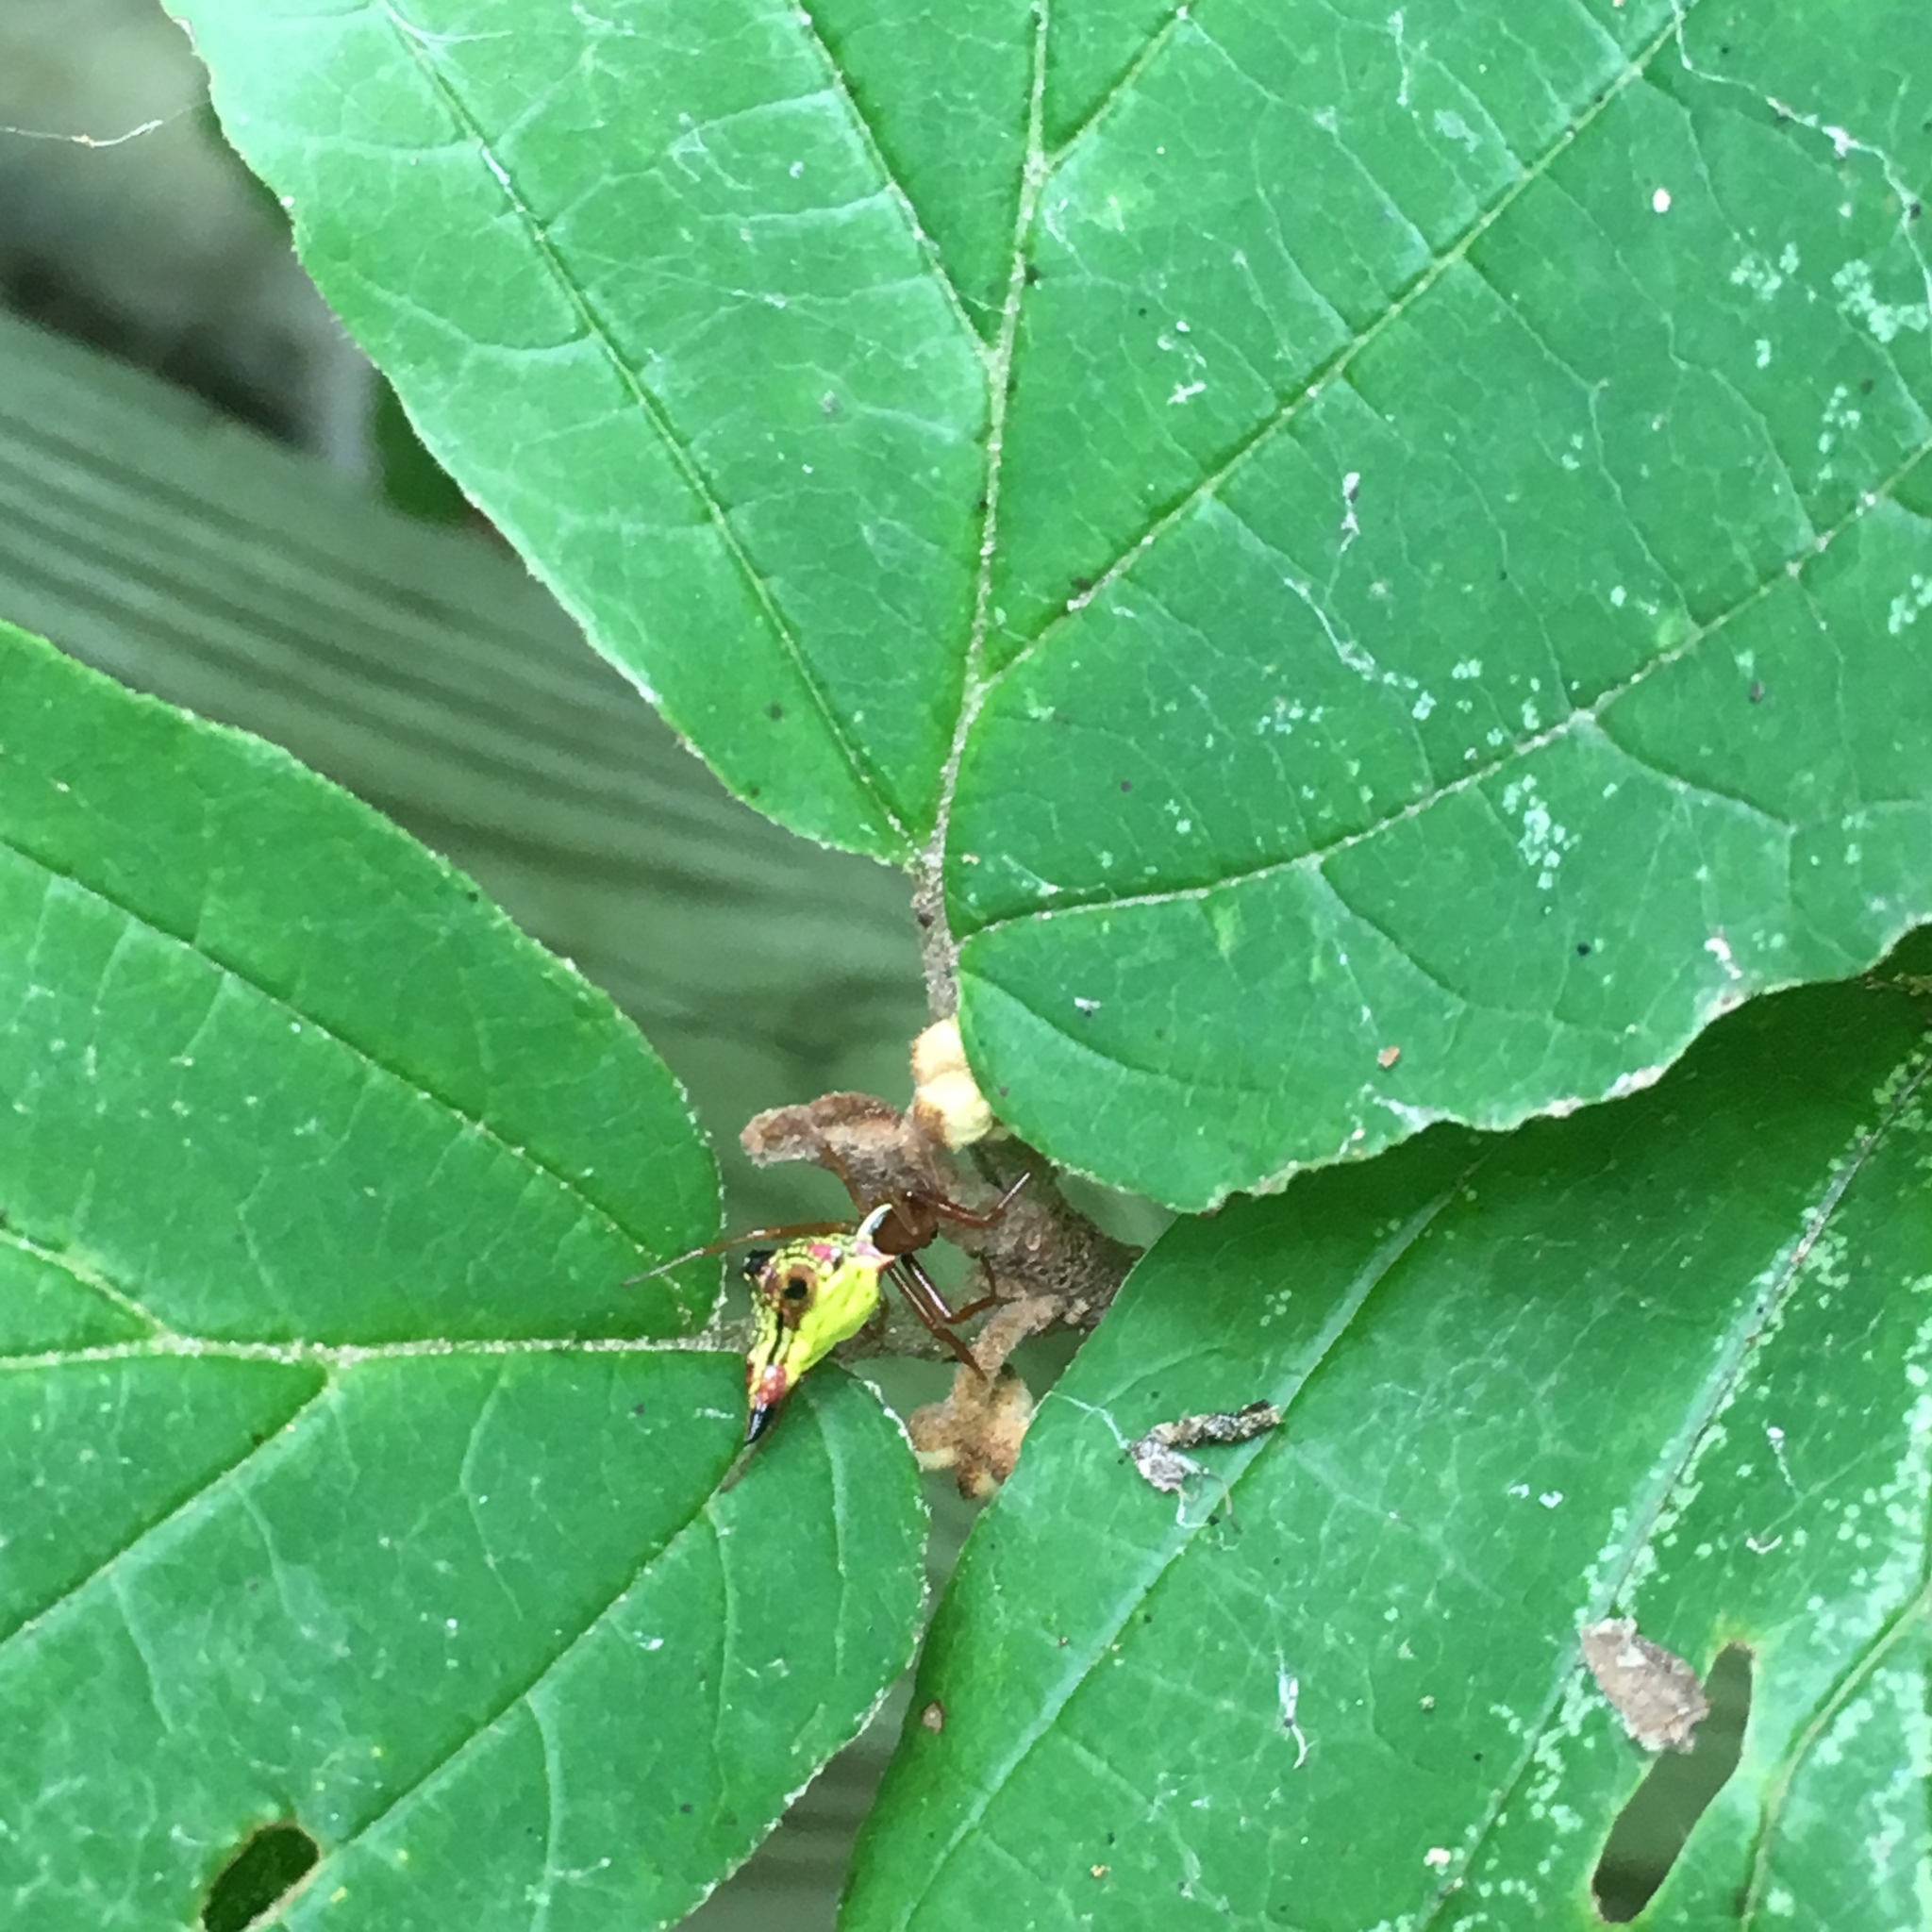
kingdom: Animalia
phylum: Arthropoda
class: Arachnida
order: Araneae
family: Araneidae
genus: Micrathena
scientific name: Micrathena sagittata
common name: Orb weavers
